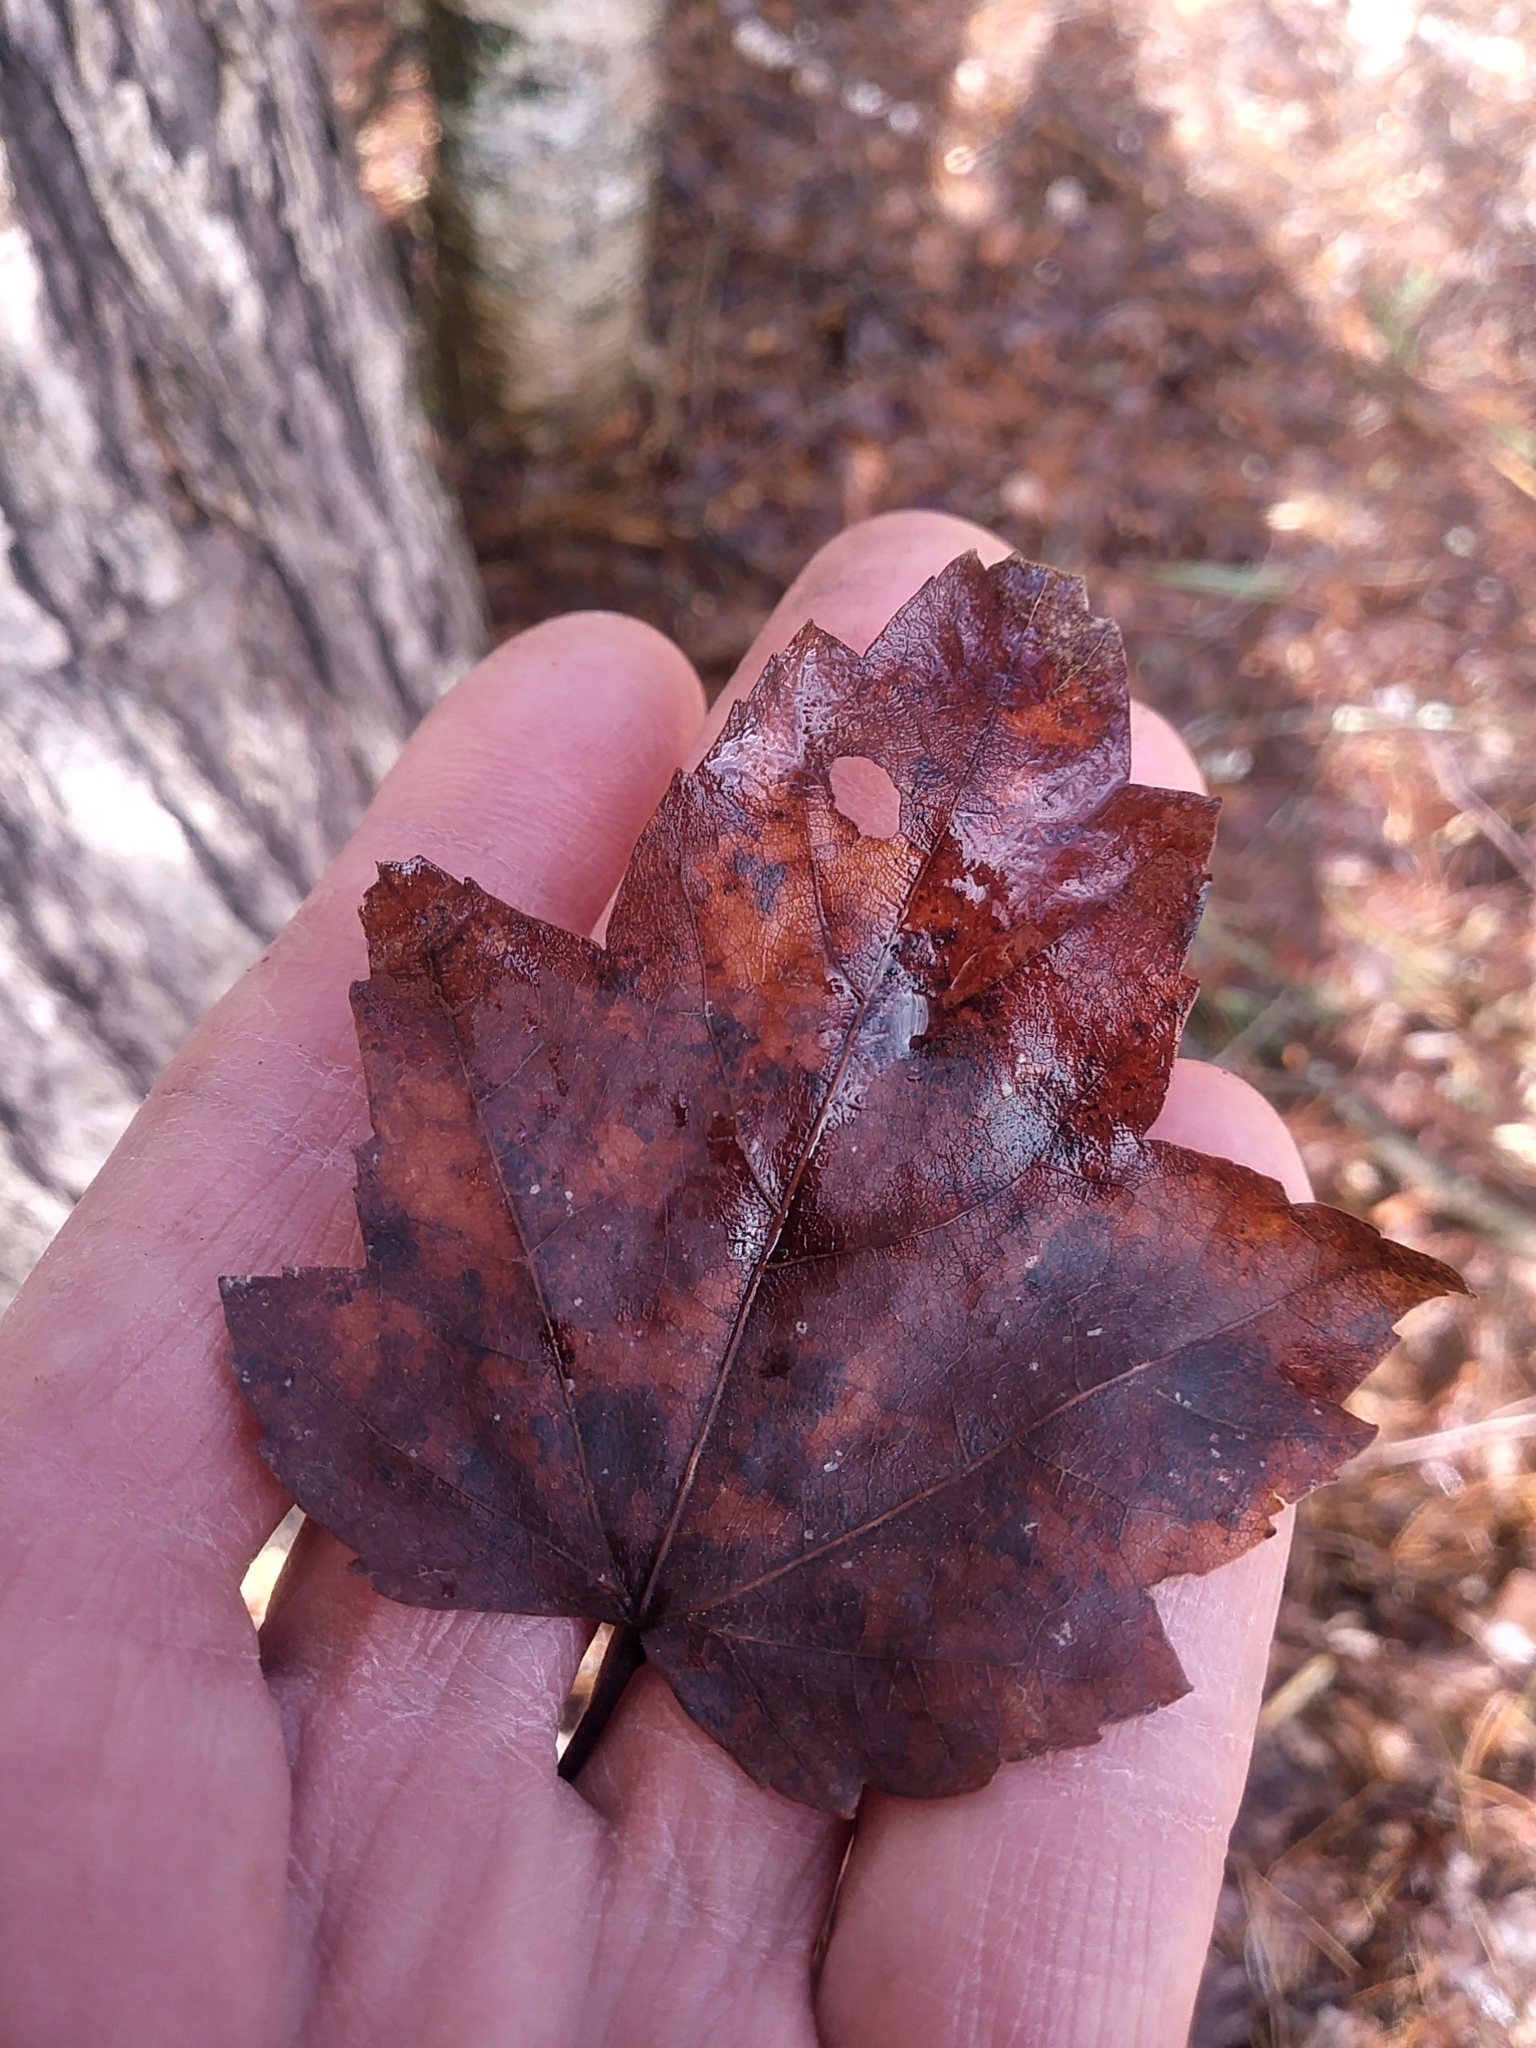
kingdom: Plantae
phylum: Tracheophyta
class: Magnoliopsida
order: Sapindales
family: Sapindaceae
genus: Acer
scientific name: Acer rubrum
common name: Red maple
